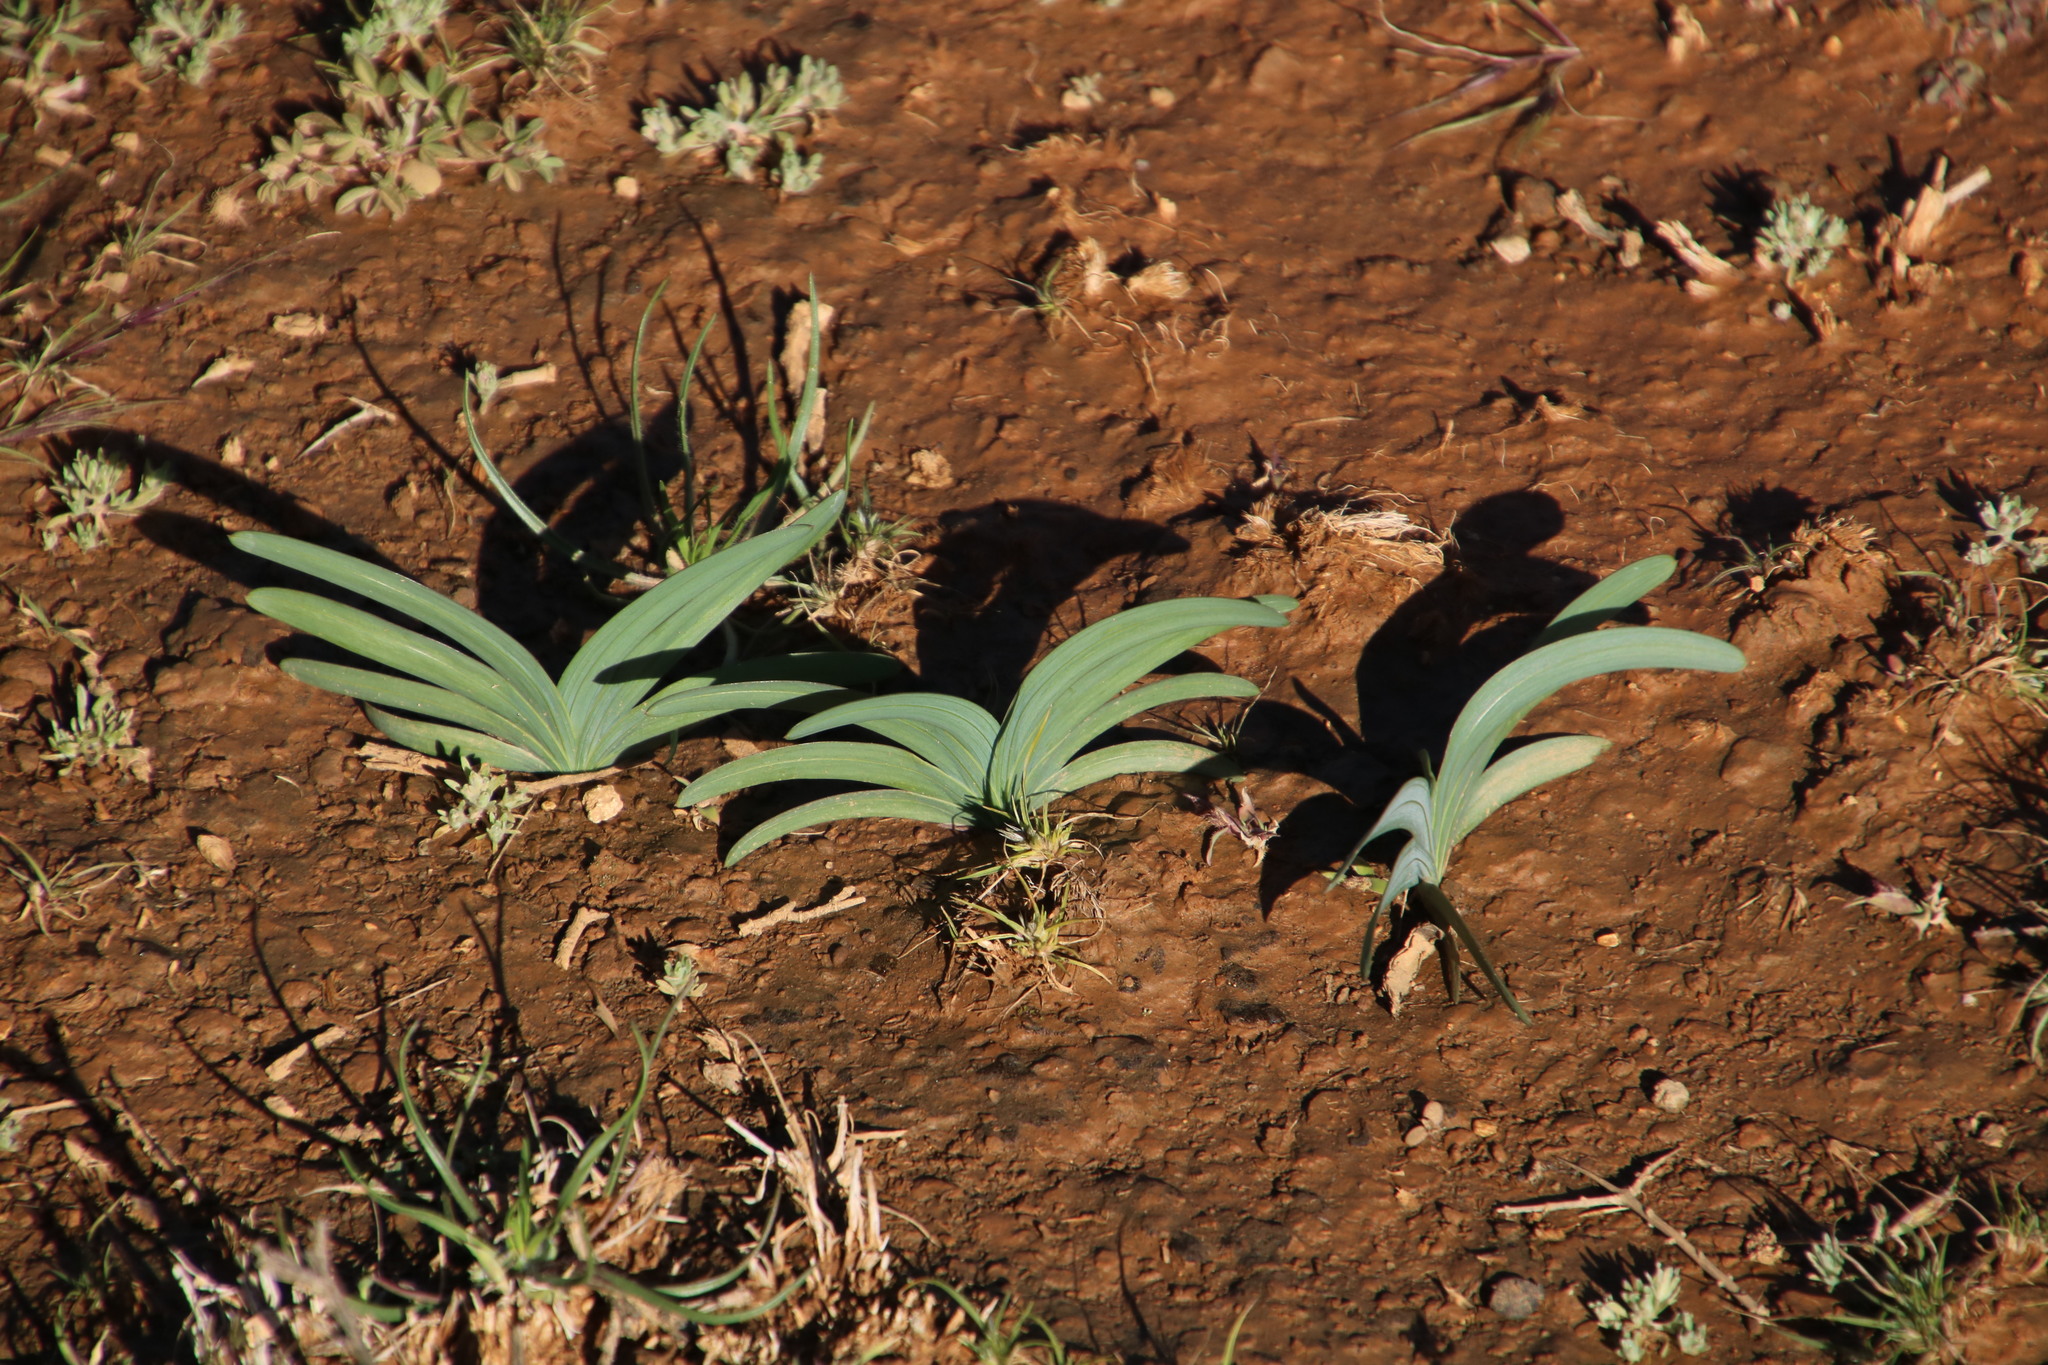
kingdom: Plantae
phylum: Tracheophyta
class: Liliopsida
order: Asparagales
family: Iridaceae
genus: Ixia
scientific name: Ixia curvata
